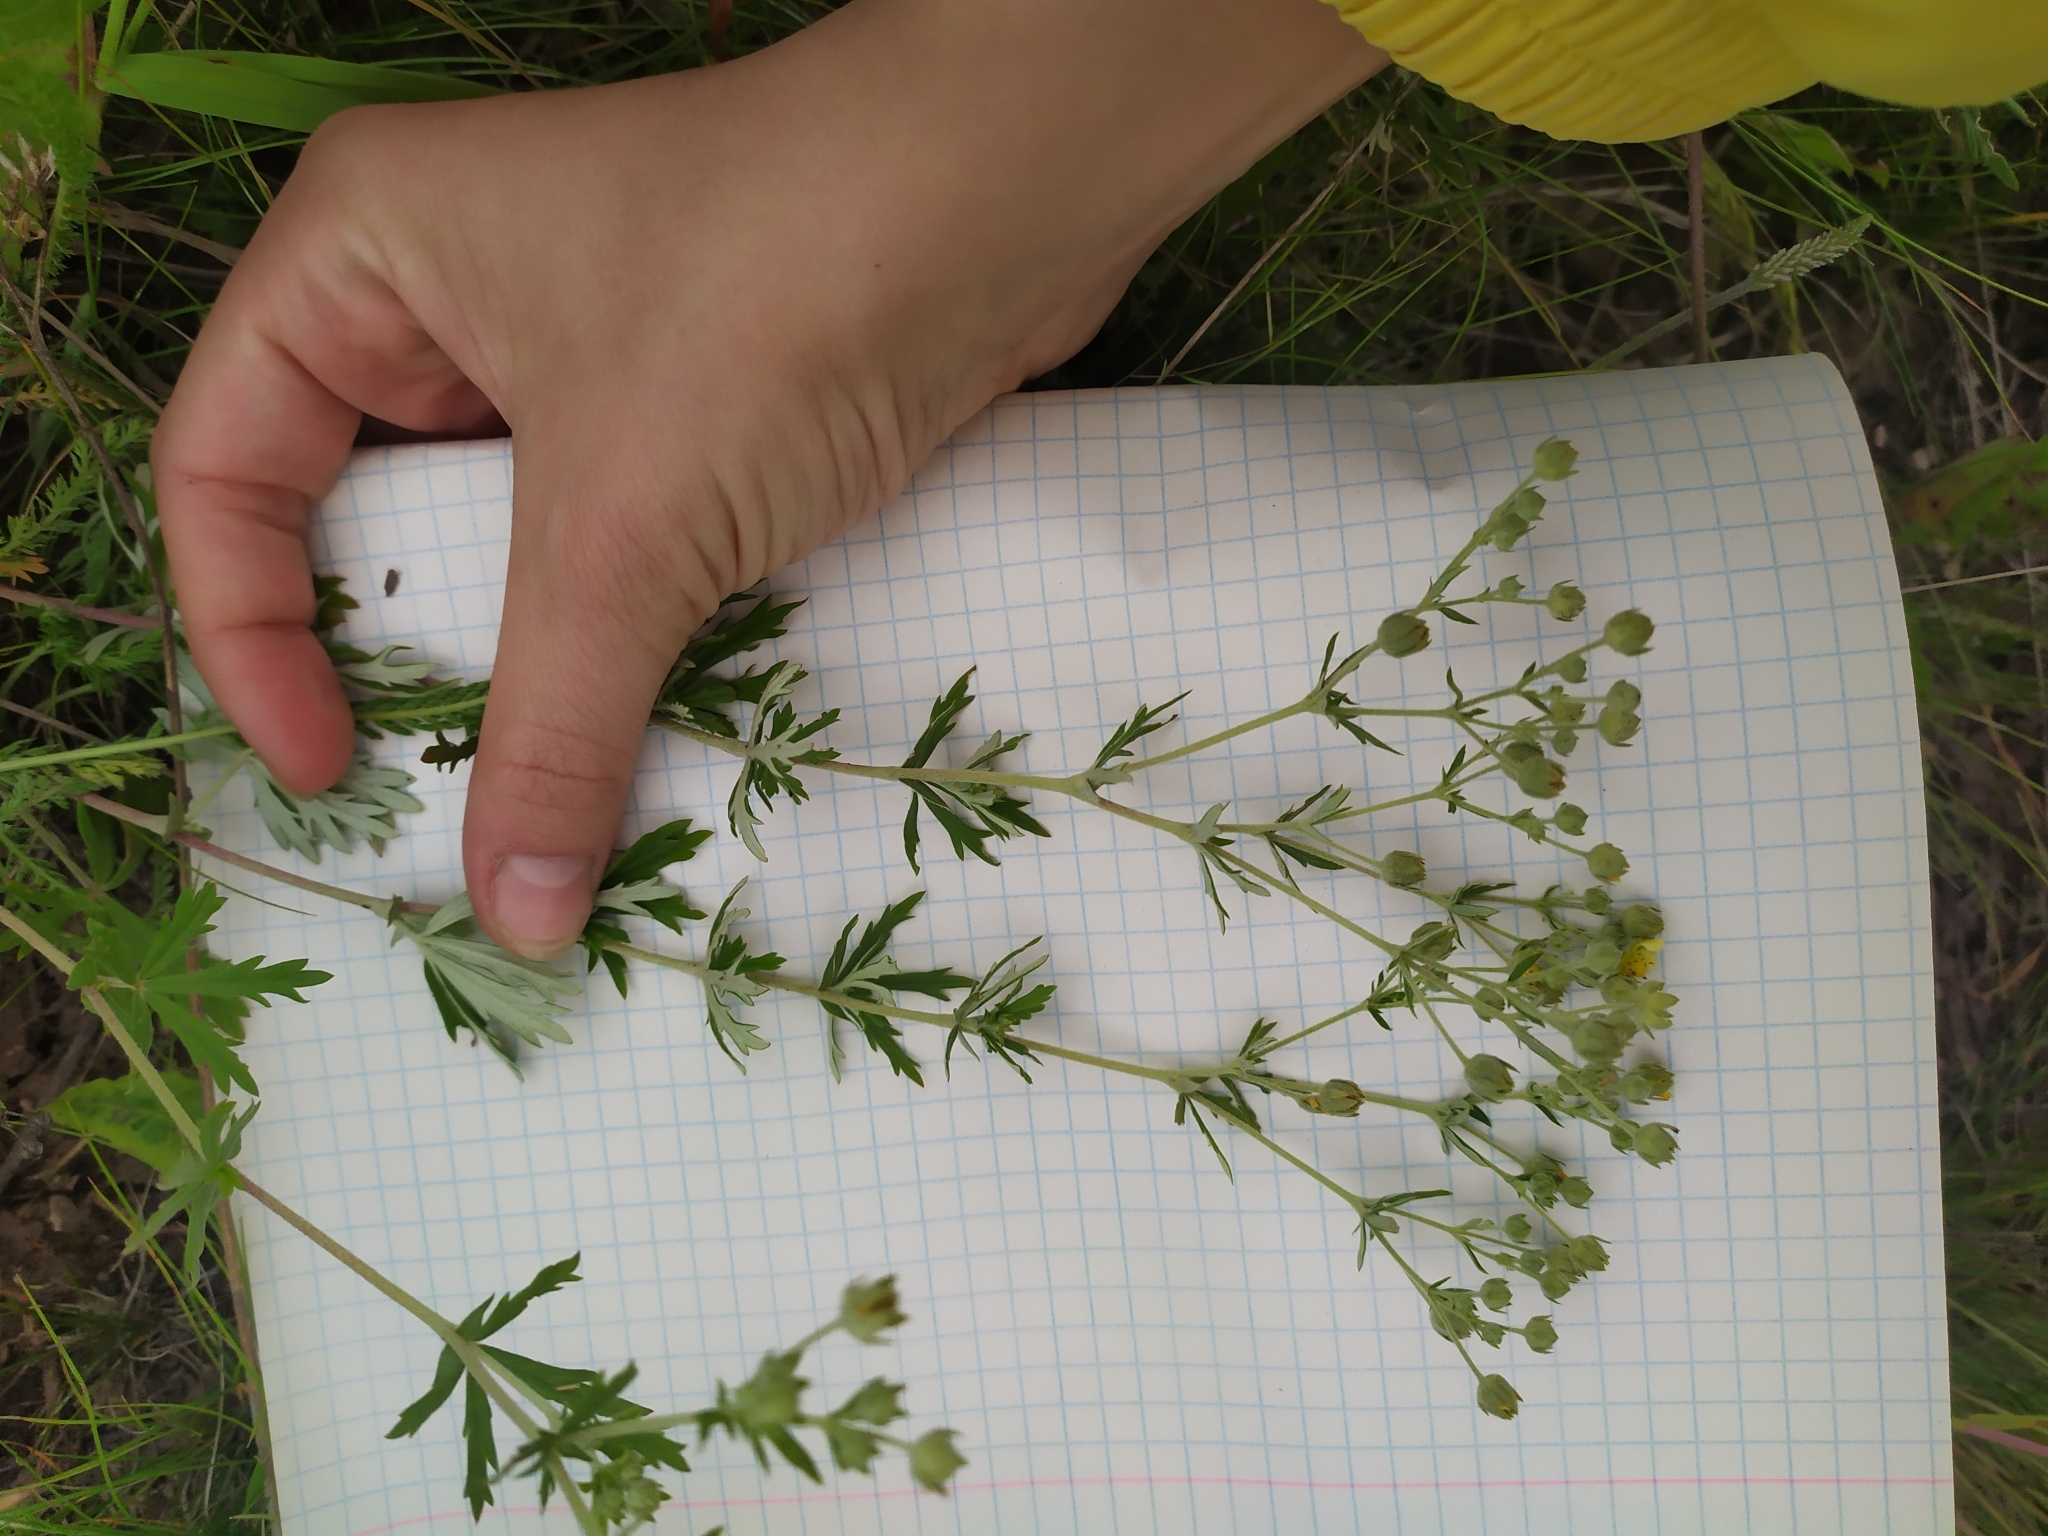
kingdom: Plantae
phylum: Tracheophyta
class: Magnoliopsida
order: Rosales
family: Rosaceae
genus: Potentilla
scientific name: Potentilla argentea
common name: Hoary cinquefoil
